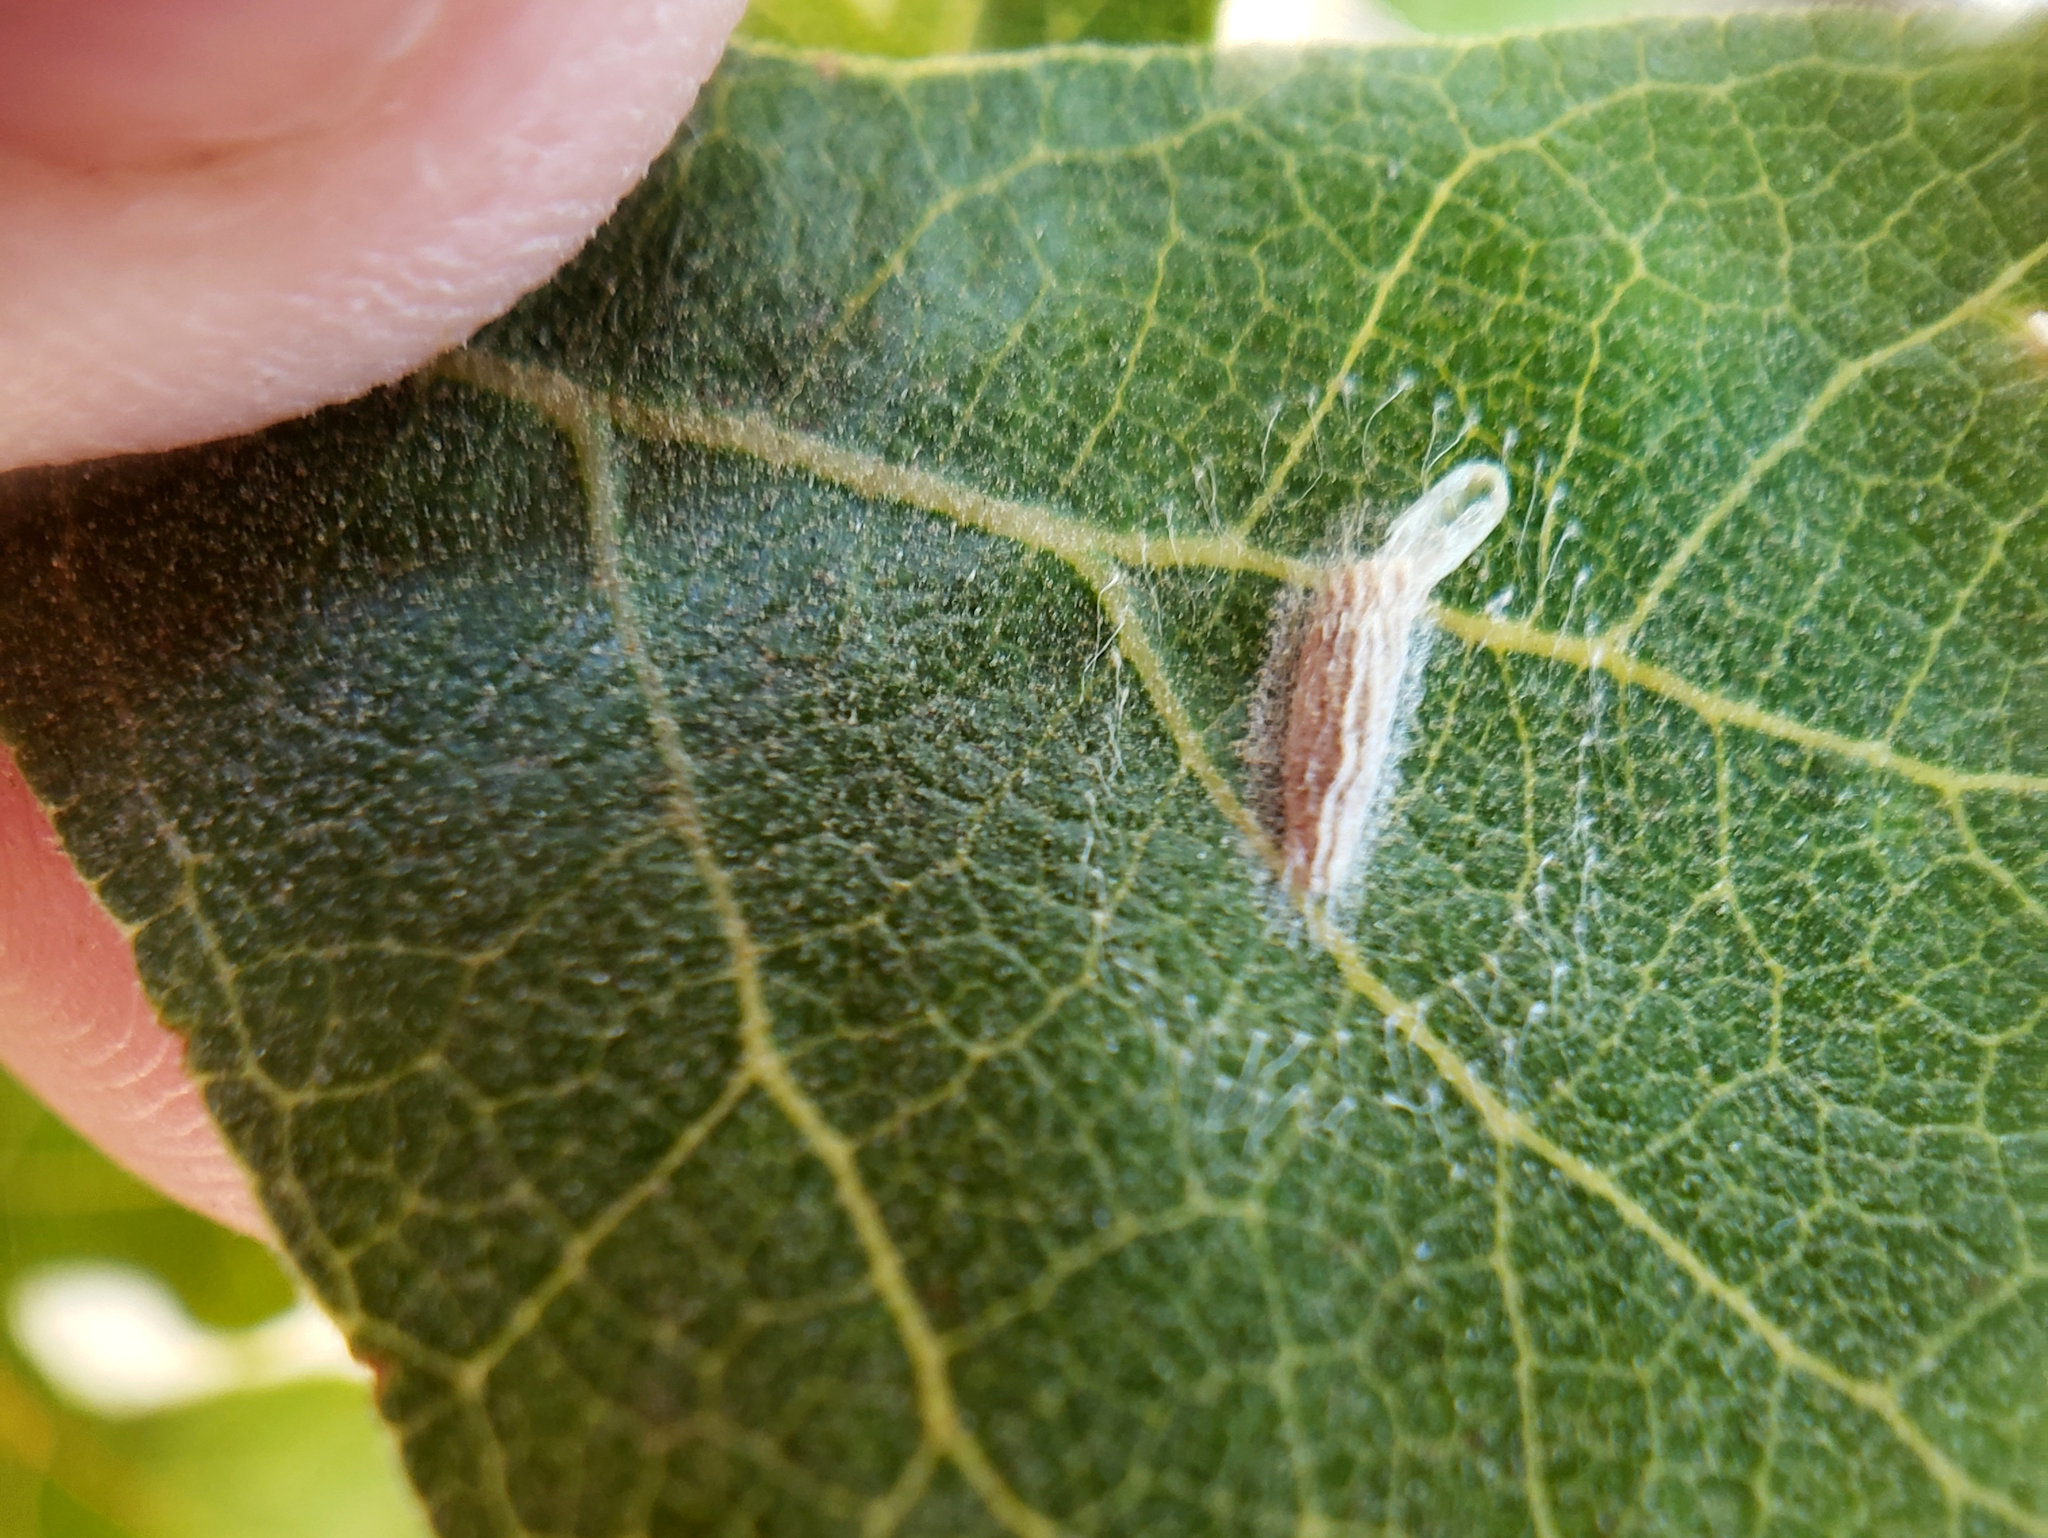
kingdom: Animalia
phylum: Arthropoda
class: Insecta
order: Lepidoptera
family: Bucculatricidae
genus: Bucculatrix
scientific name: Bucculatrix albertiella
